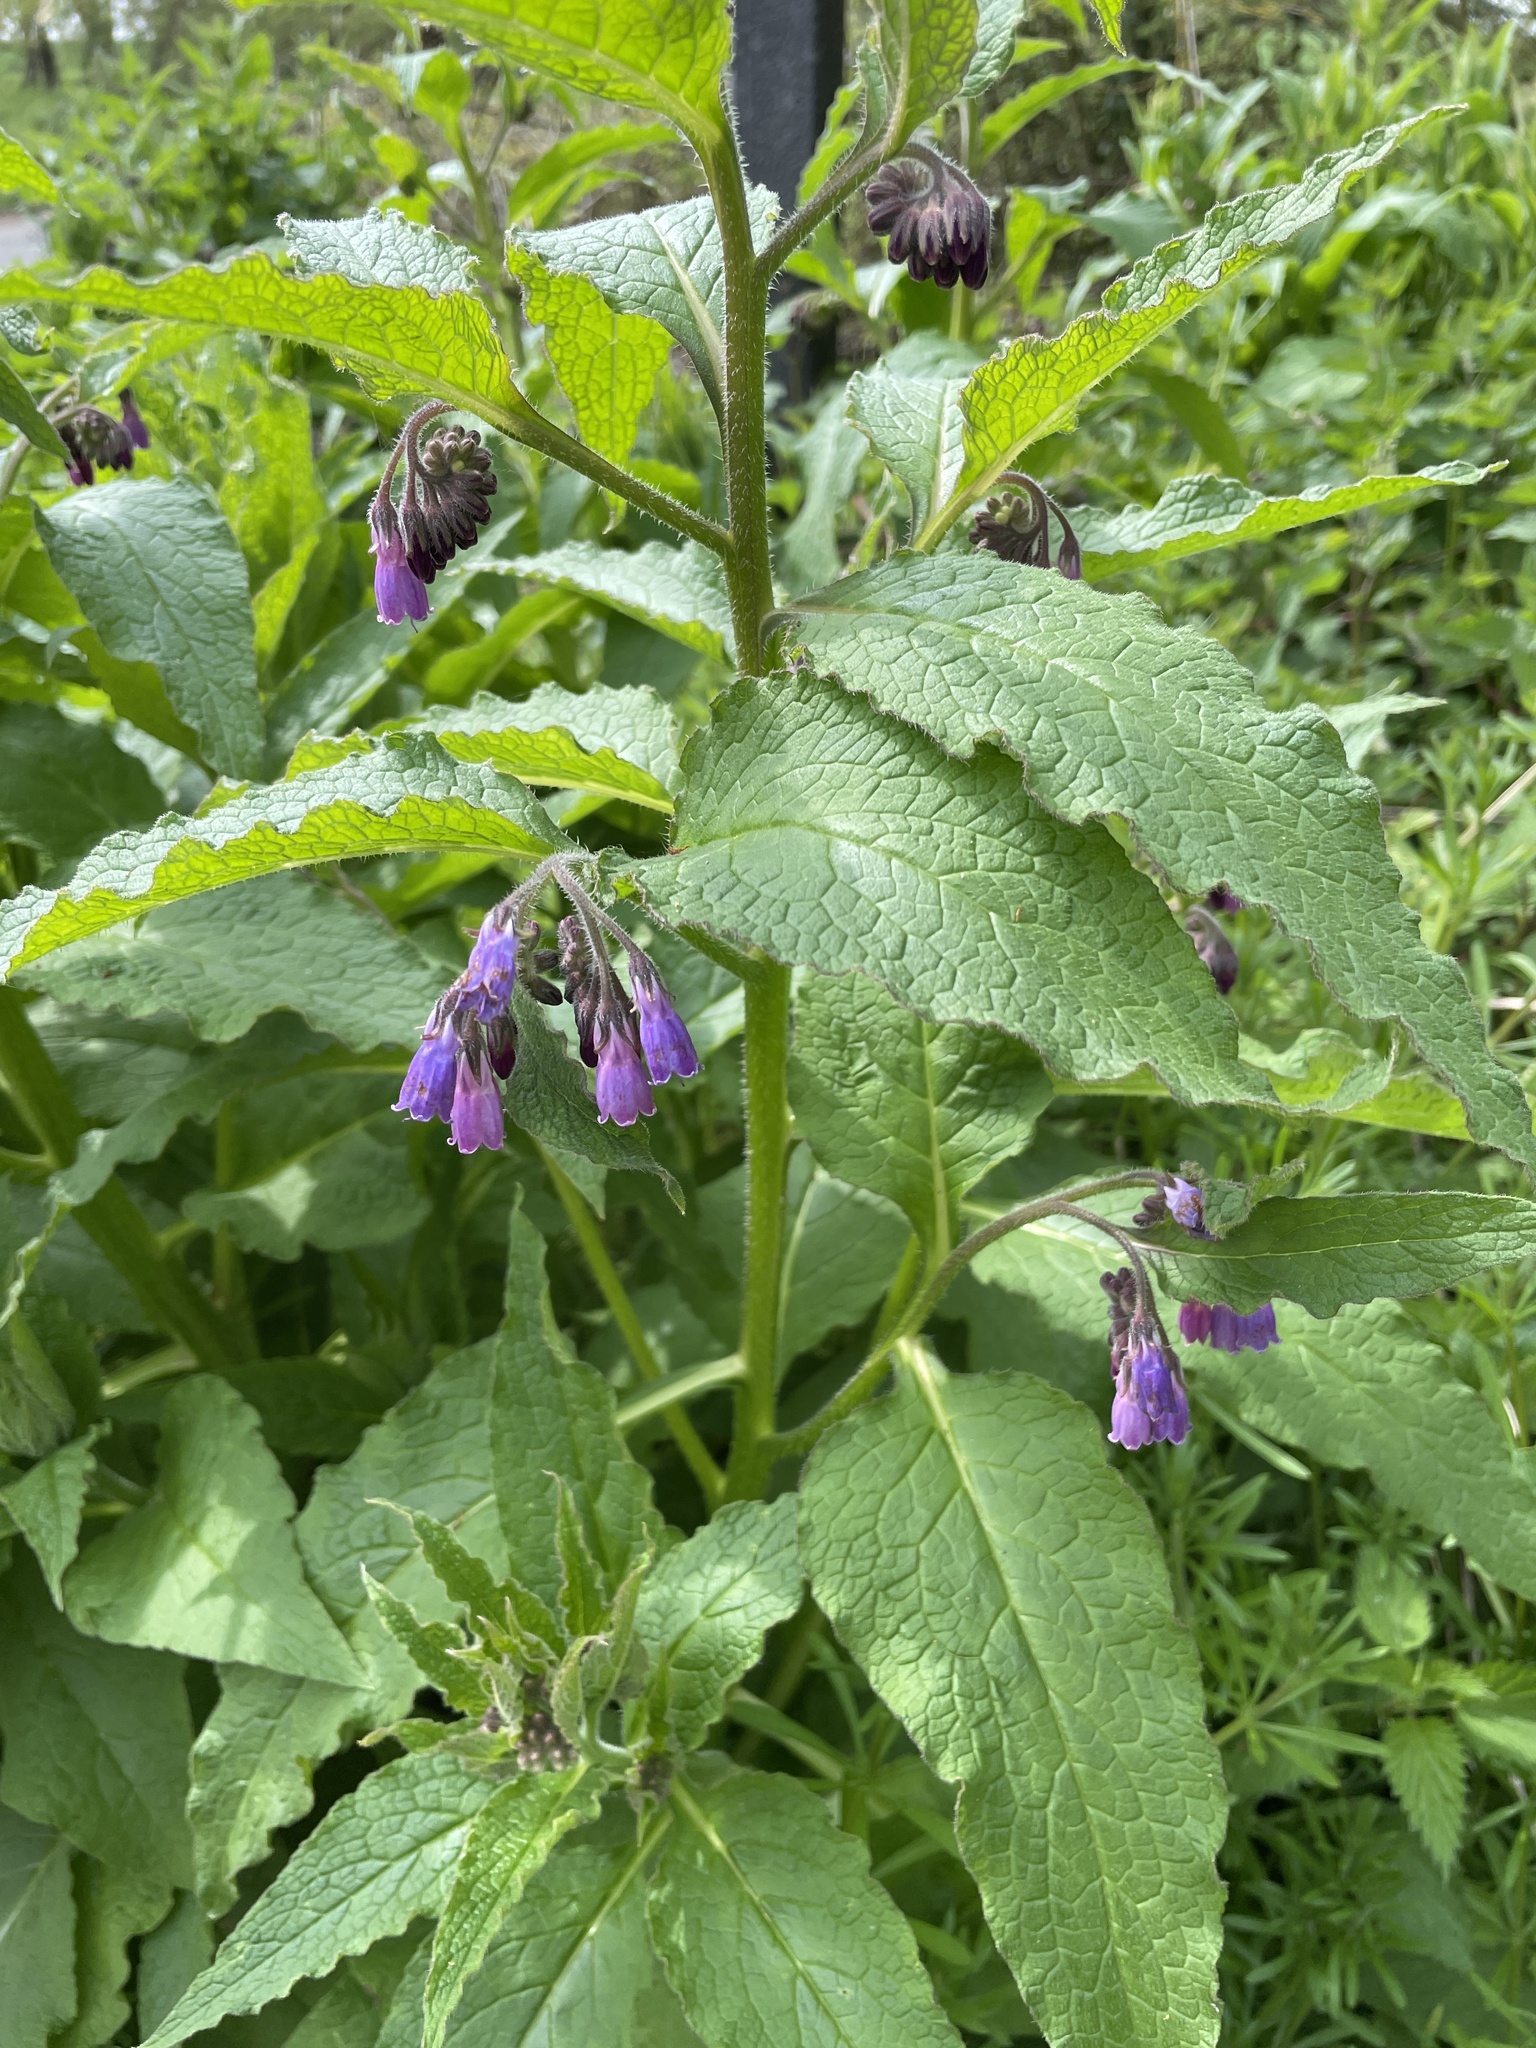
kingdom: Plantae
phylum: Tracheophyta
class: Magnoliopsida
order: Boraginales
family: Boraginaceae
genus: Symphytum
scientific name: Symphytum uplandicum
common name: Russian comfrey
